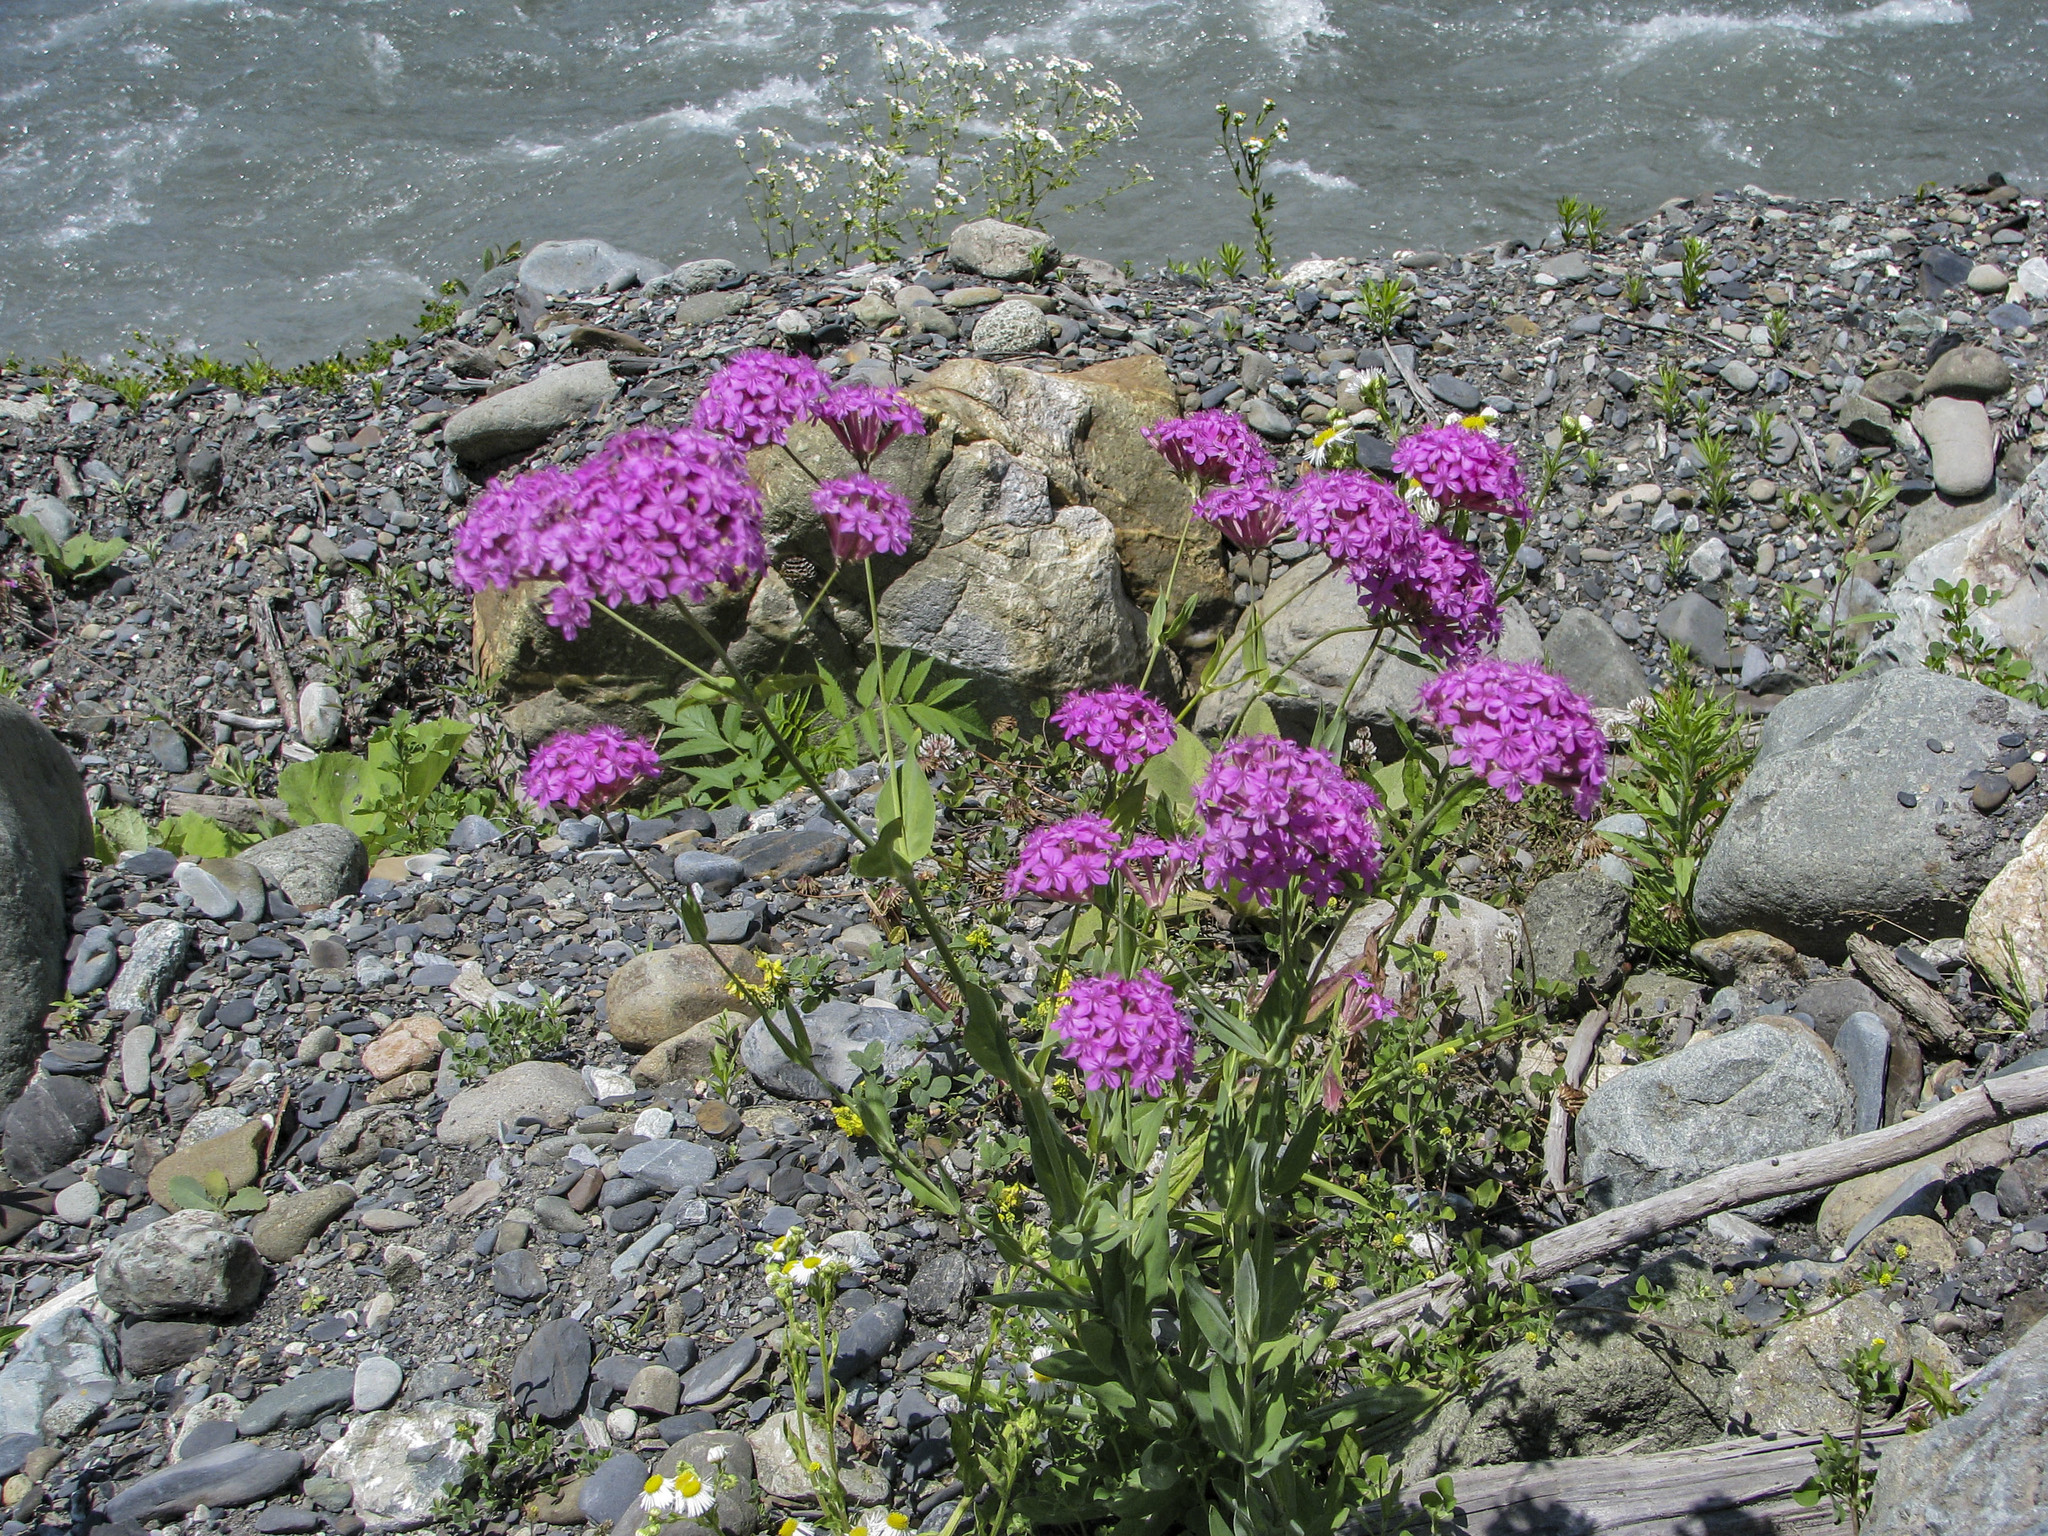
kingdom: Plantae
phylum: Tracheophyta
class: Magnoliopsida
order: Caryophyllales
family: Caryophyllaceae
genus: Atocion
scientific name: Atocion compactum
